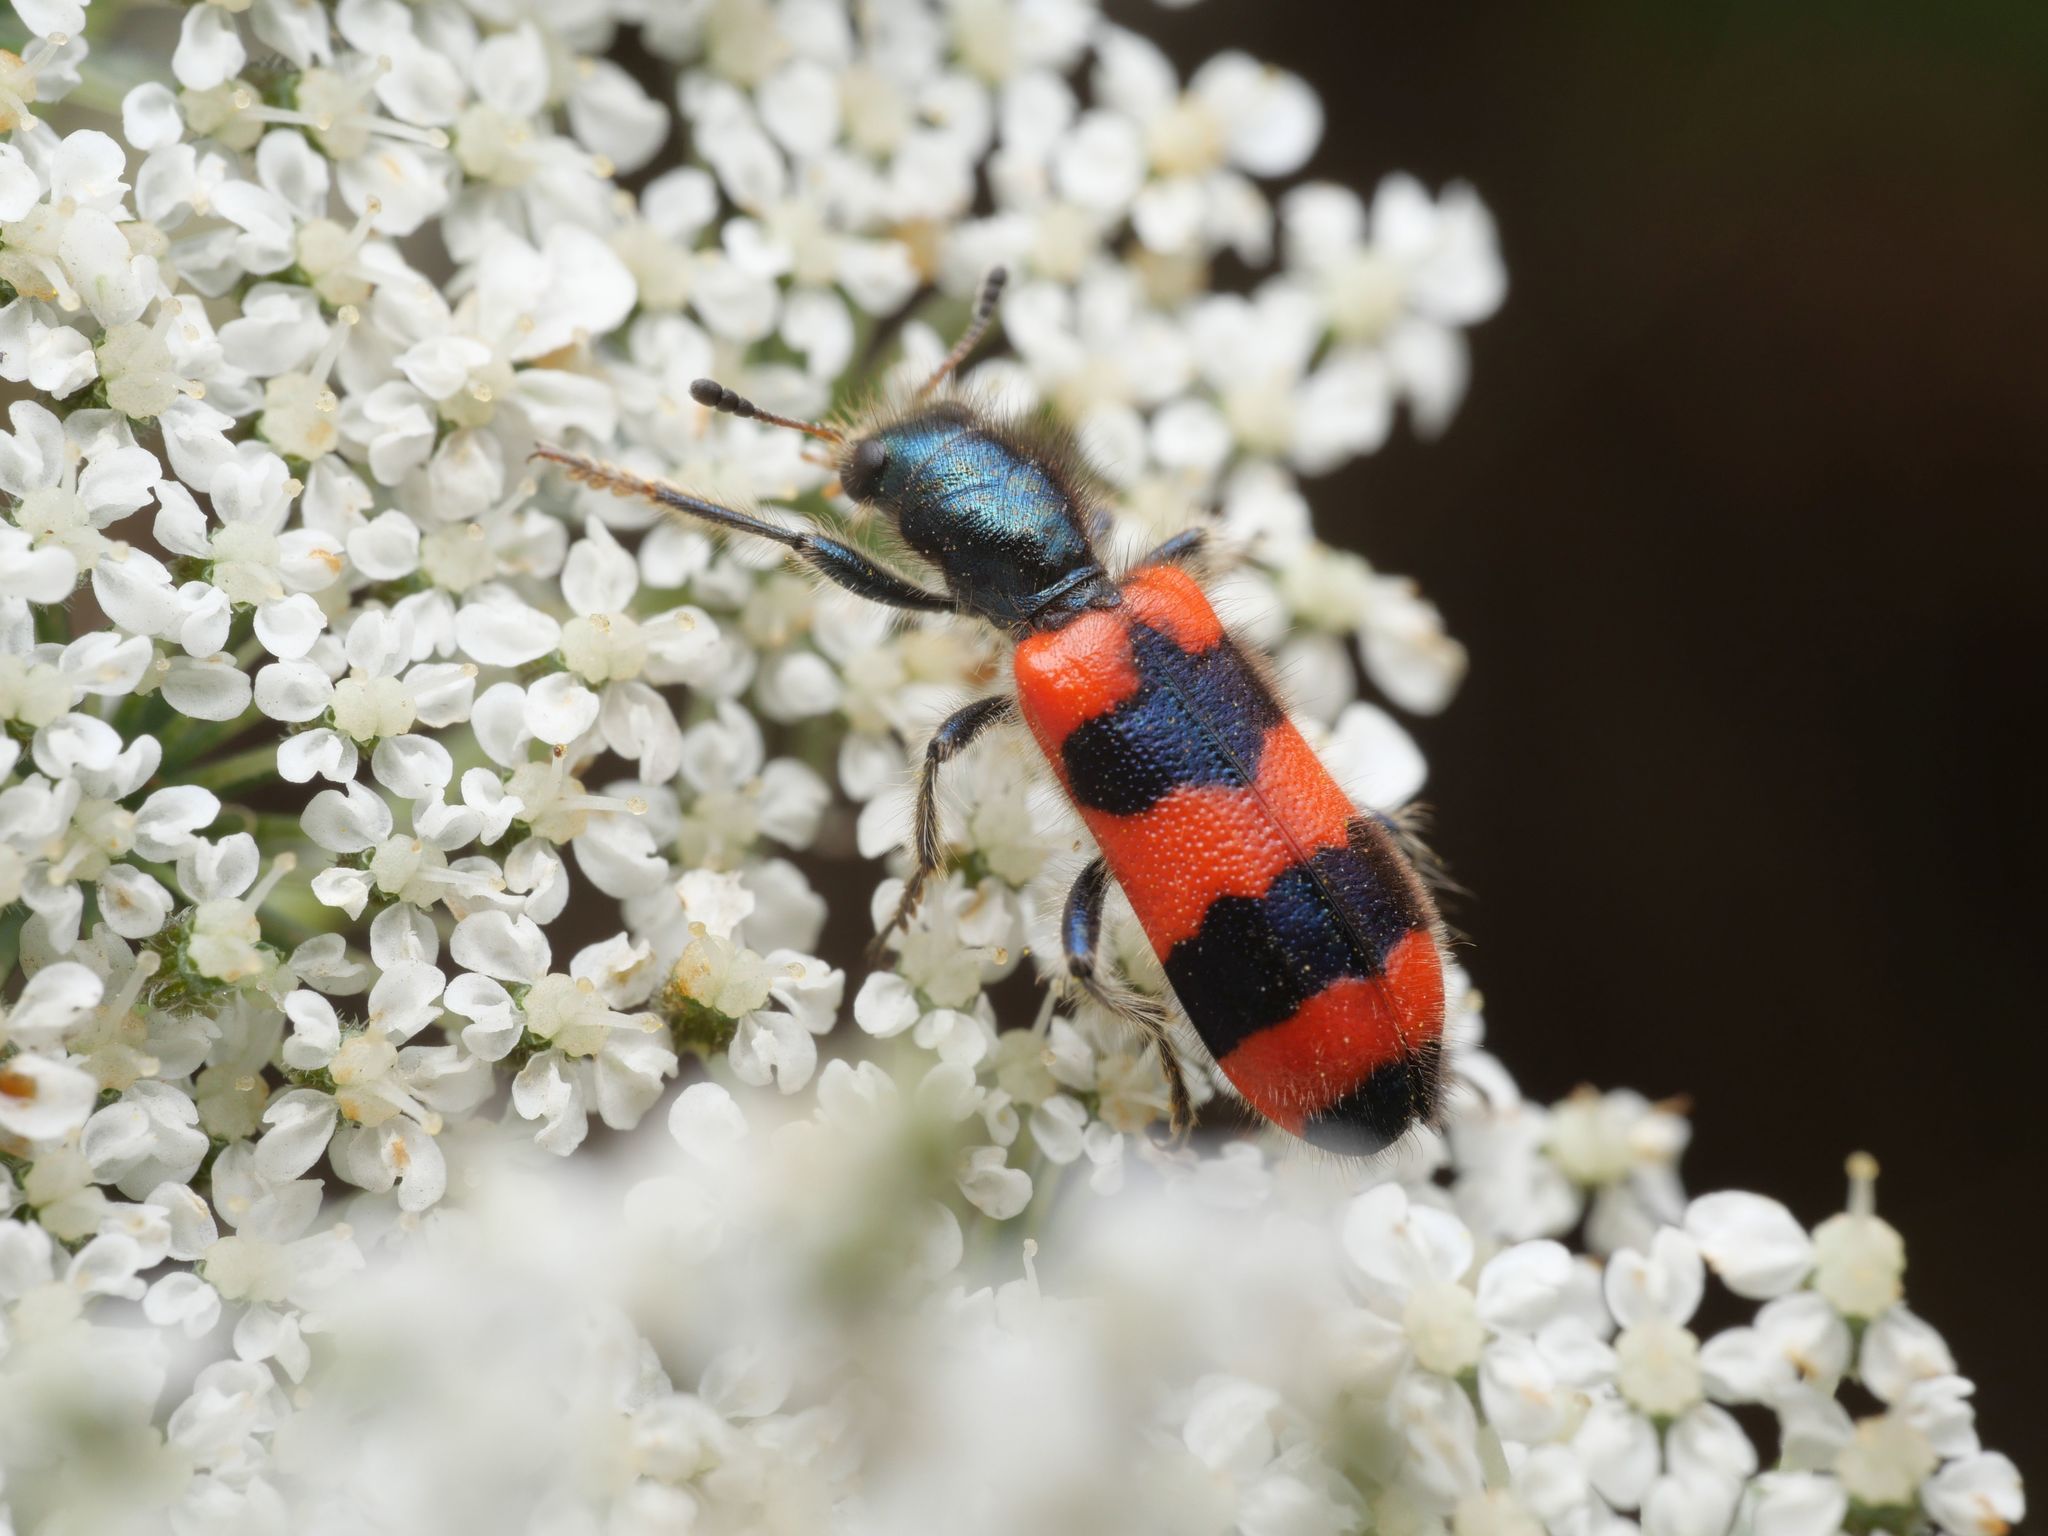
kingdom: Animalia
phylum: Arthropoda
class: Insecta
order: Coleoptera
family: Cleridae
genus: Trichodes
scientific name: Trichodes apiarius
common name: Bee-eating beetle
